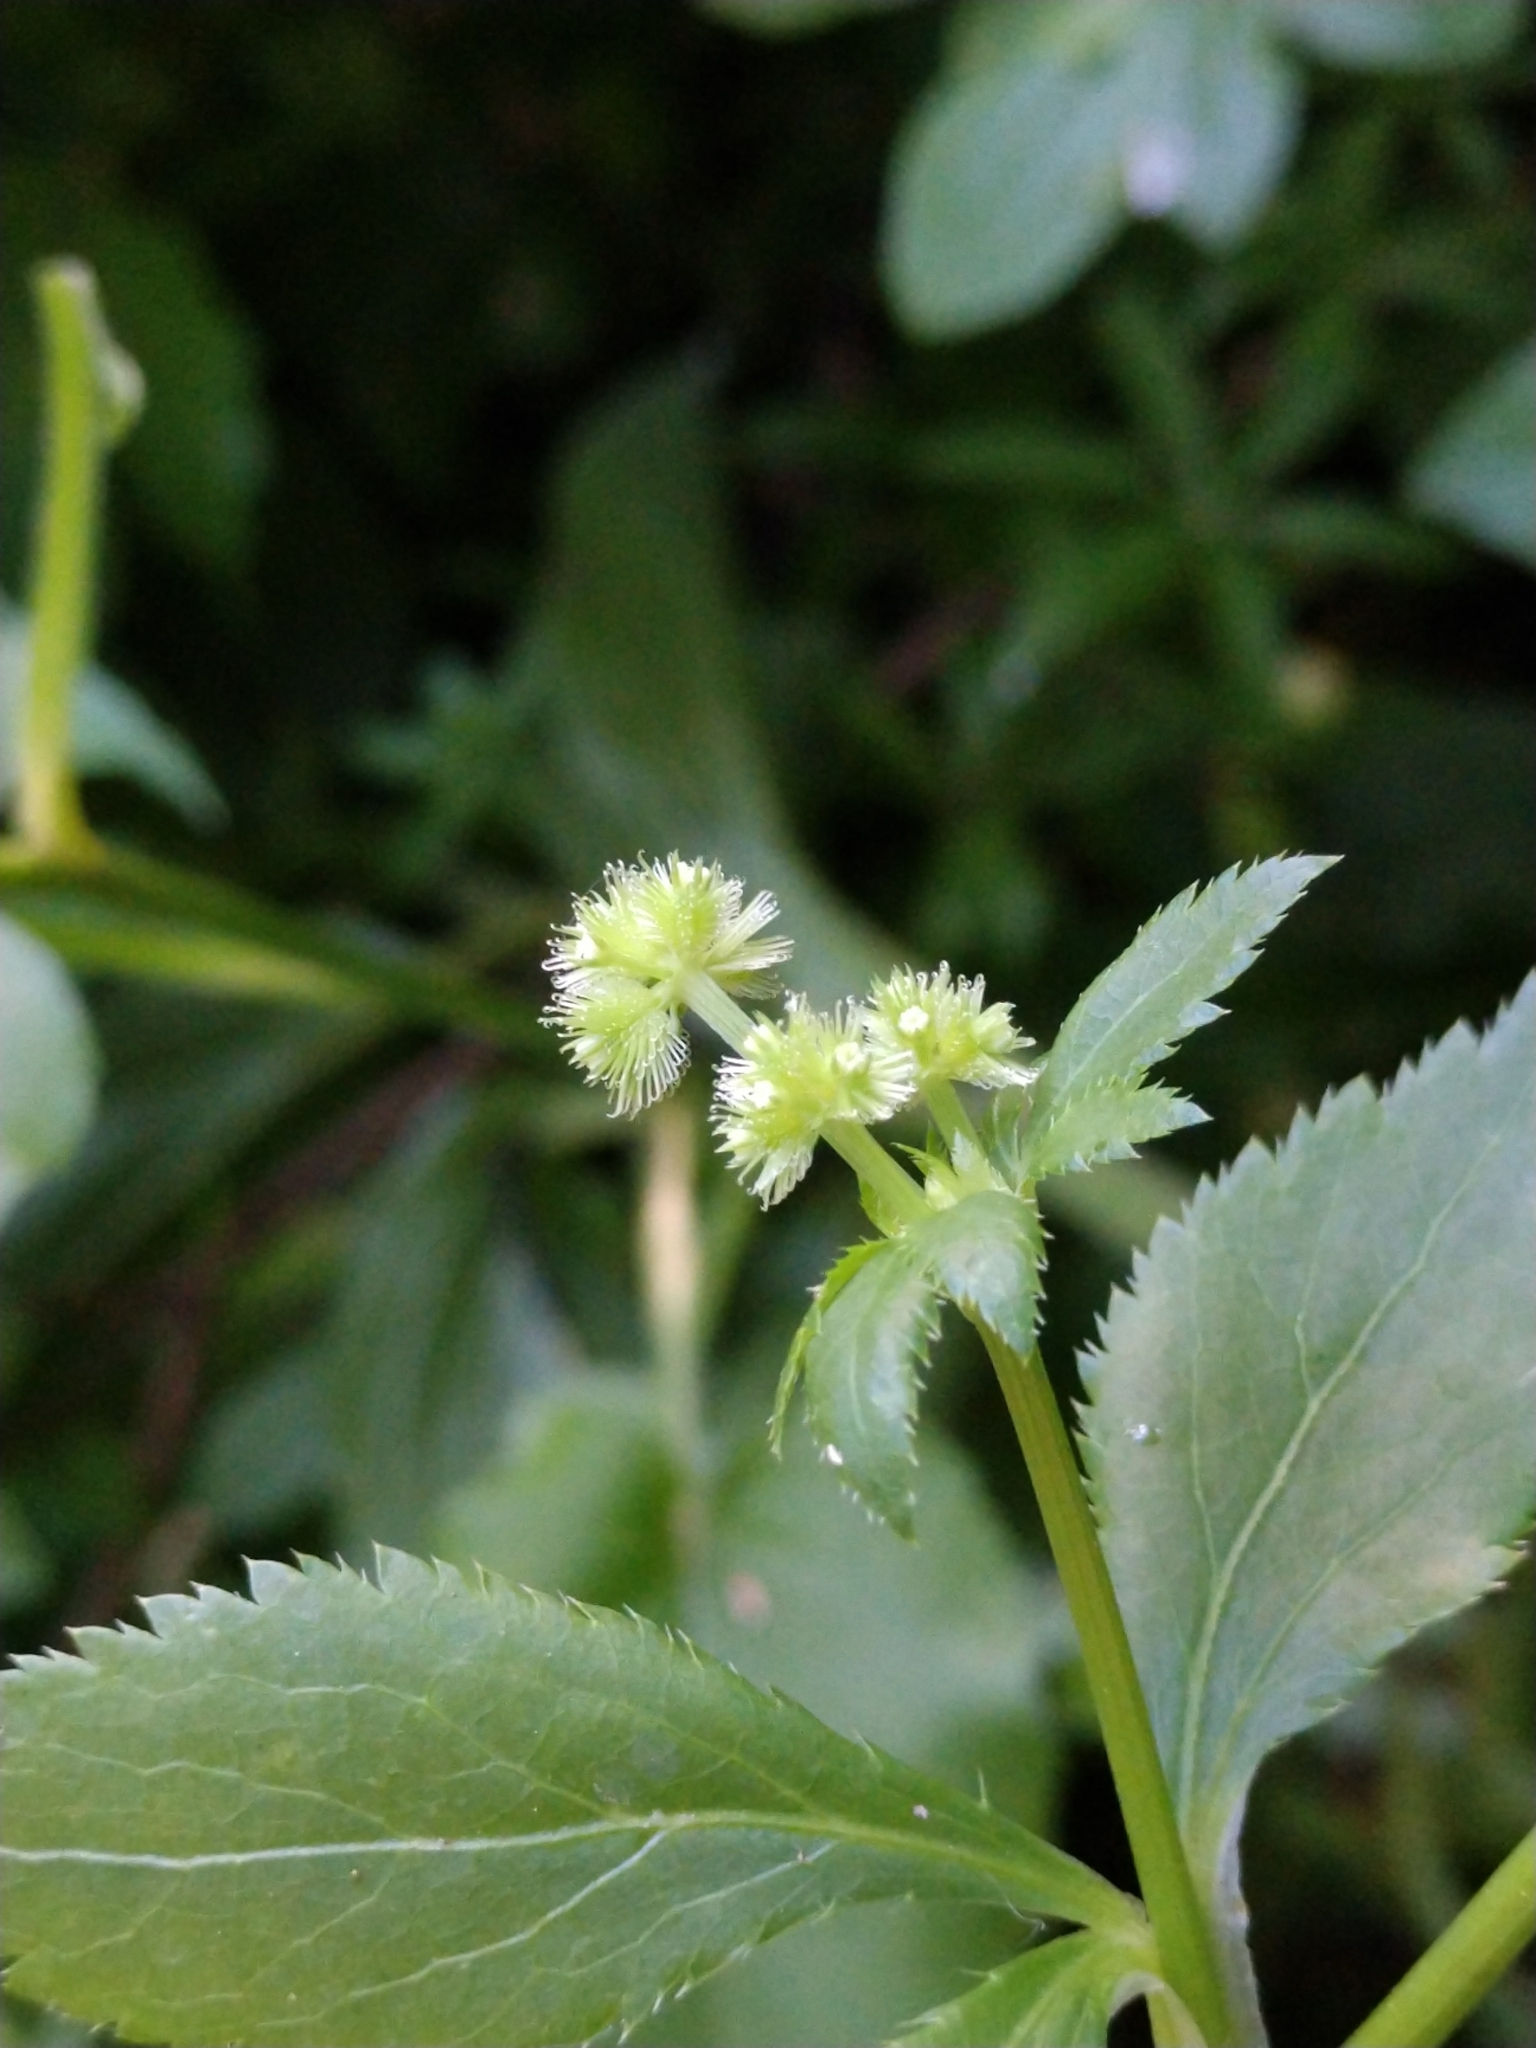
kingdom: Plantae
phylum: Tracheophyta
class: Magnoliopsida
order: Apiales
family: Apiaceae
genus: Sanicula
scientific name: Sanicula canadensis
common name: Canada sanicle
